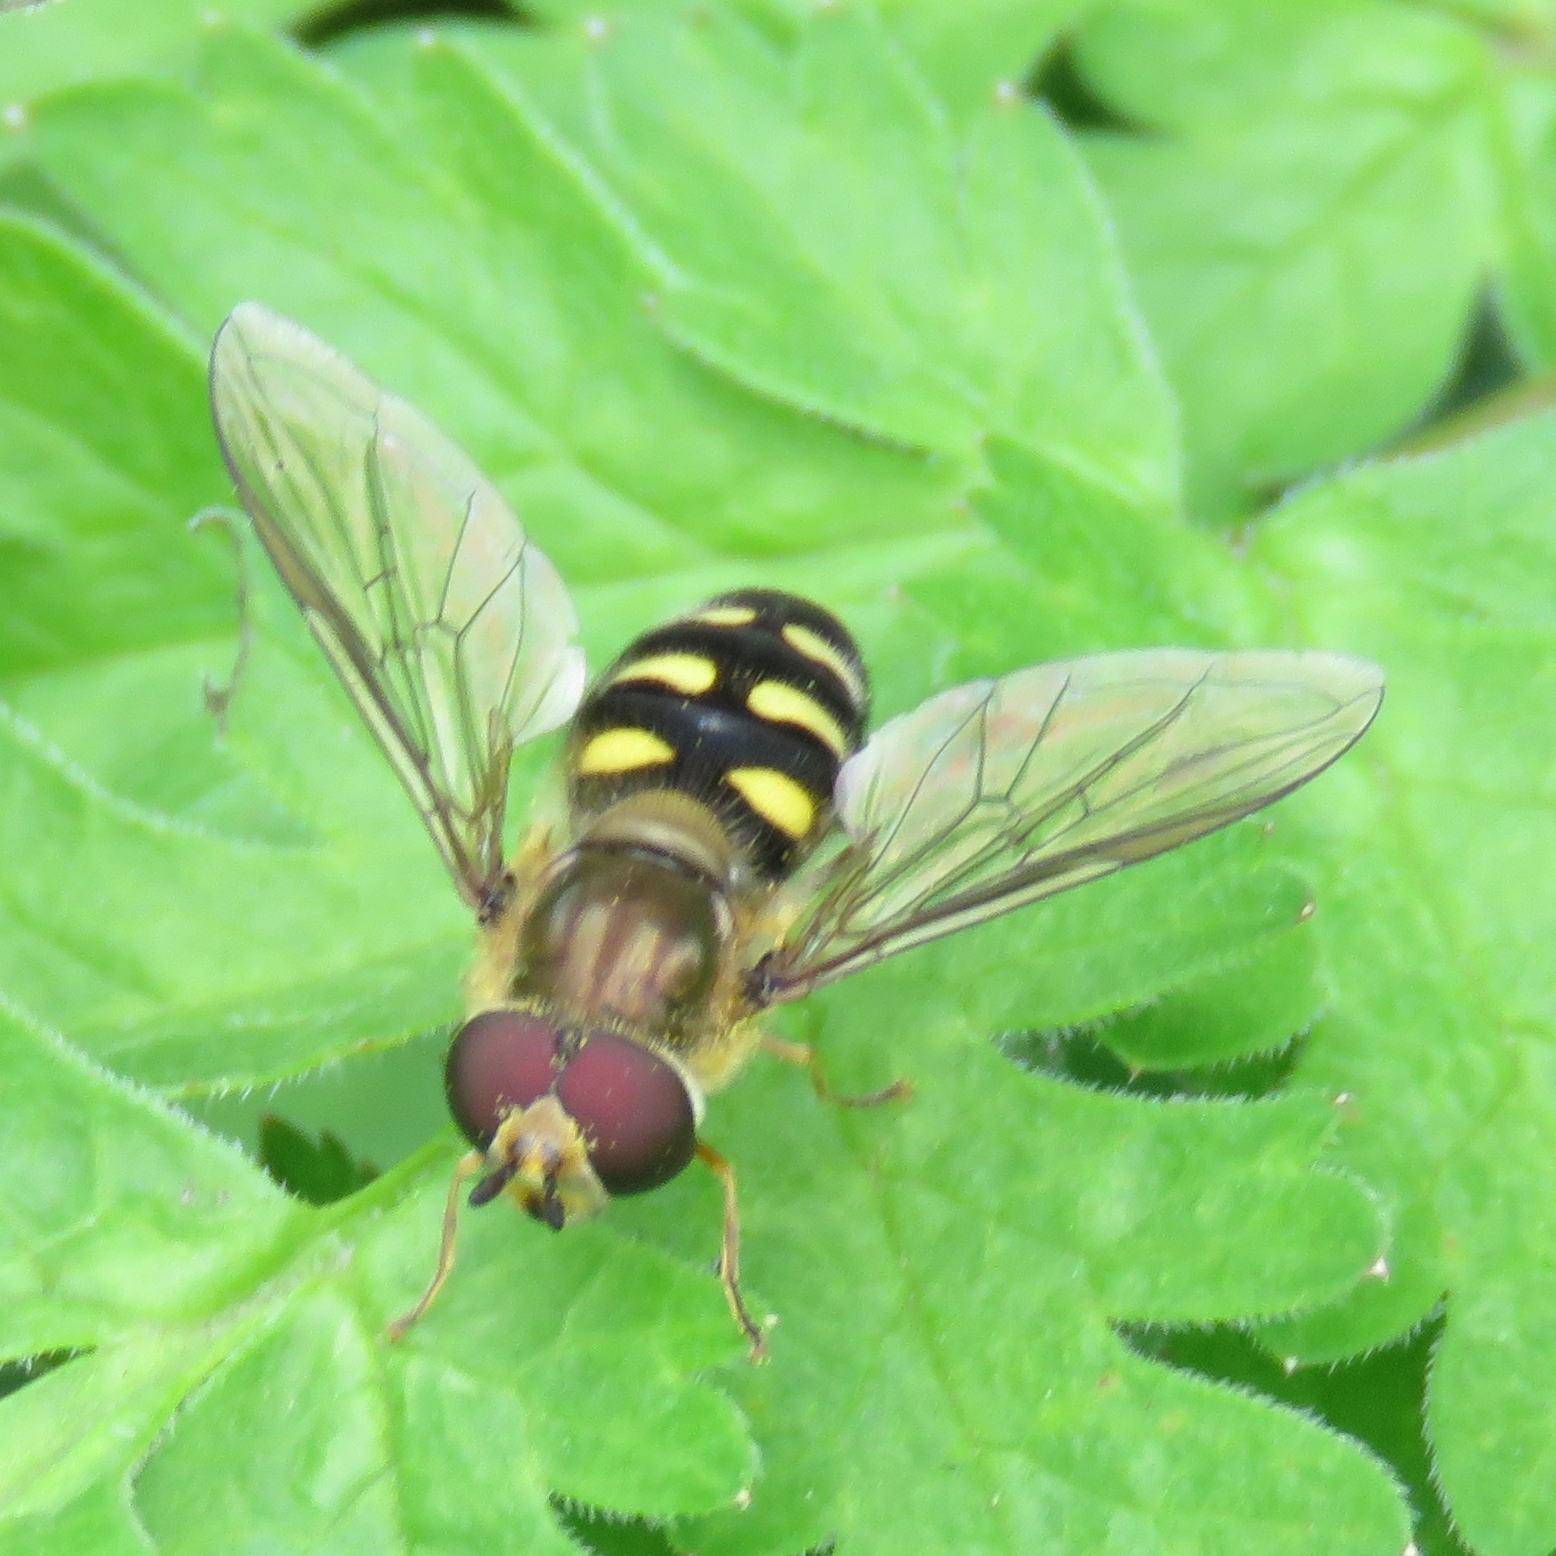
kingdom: Animalia
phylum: Arthropoda
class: Insecta
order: Diptera
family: Syrphidae
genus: Eupeodes
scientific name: Eupeodes
